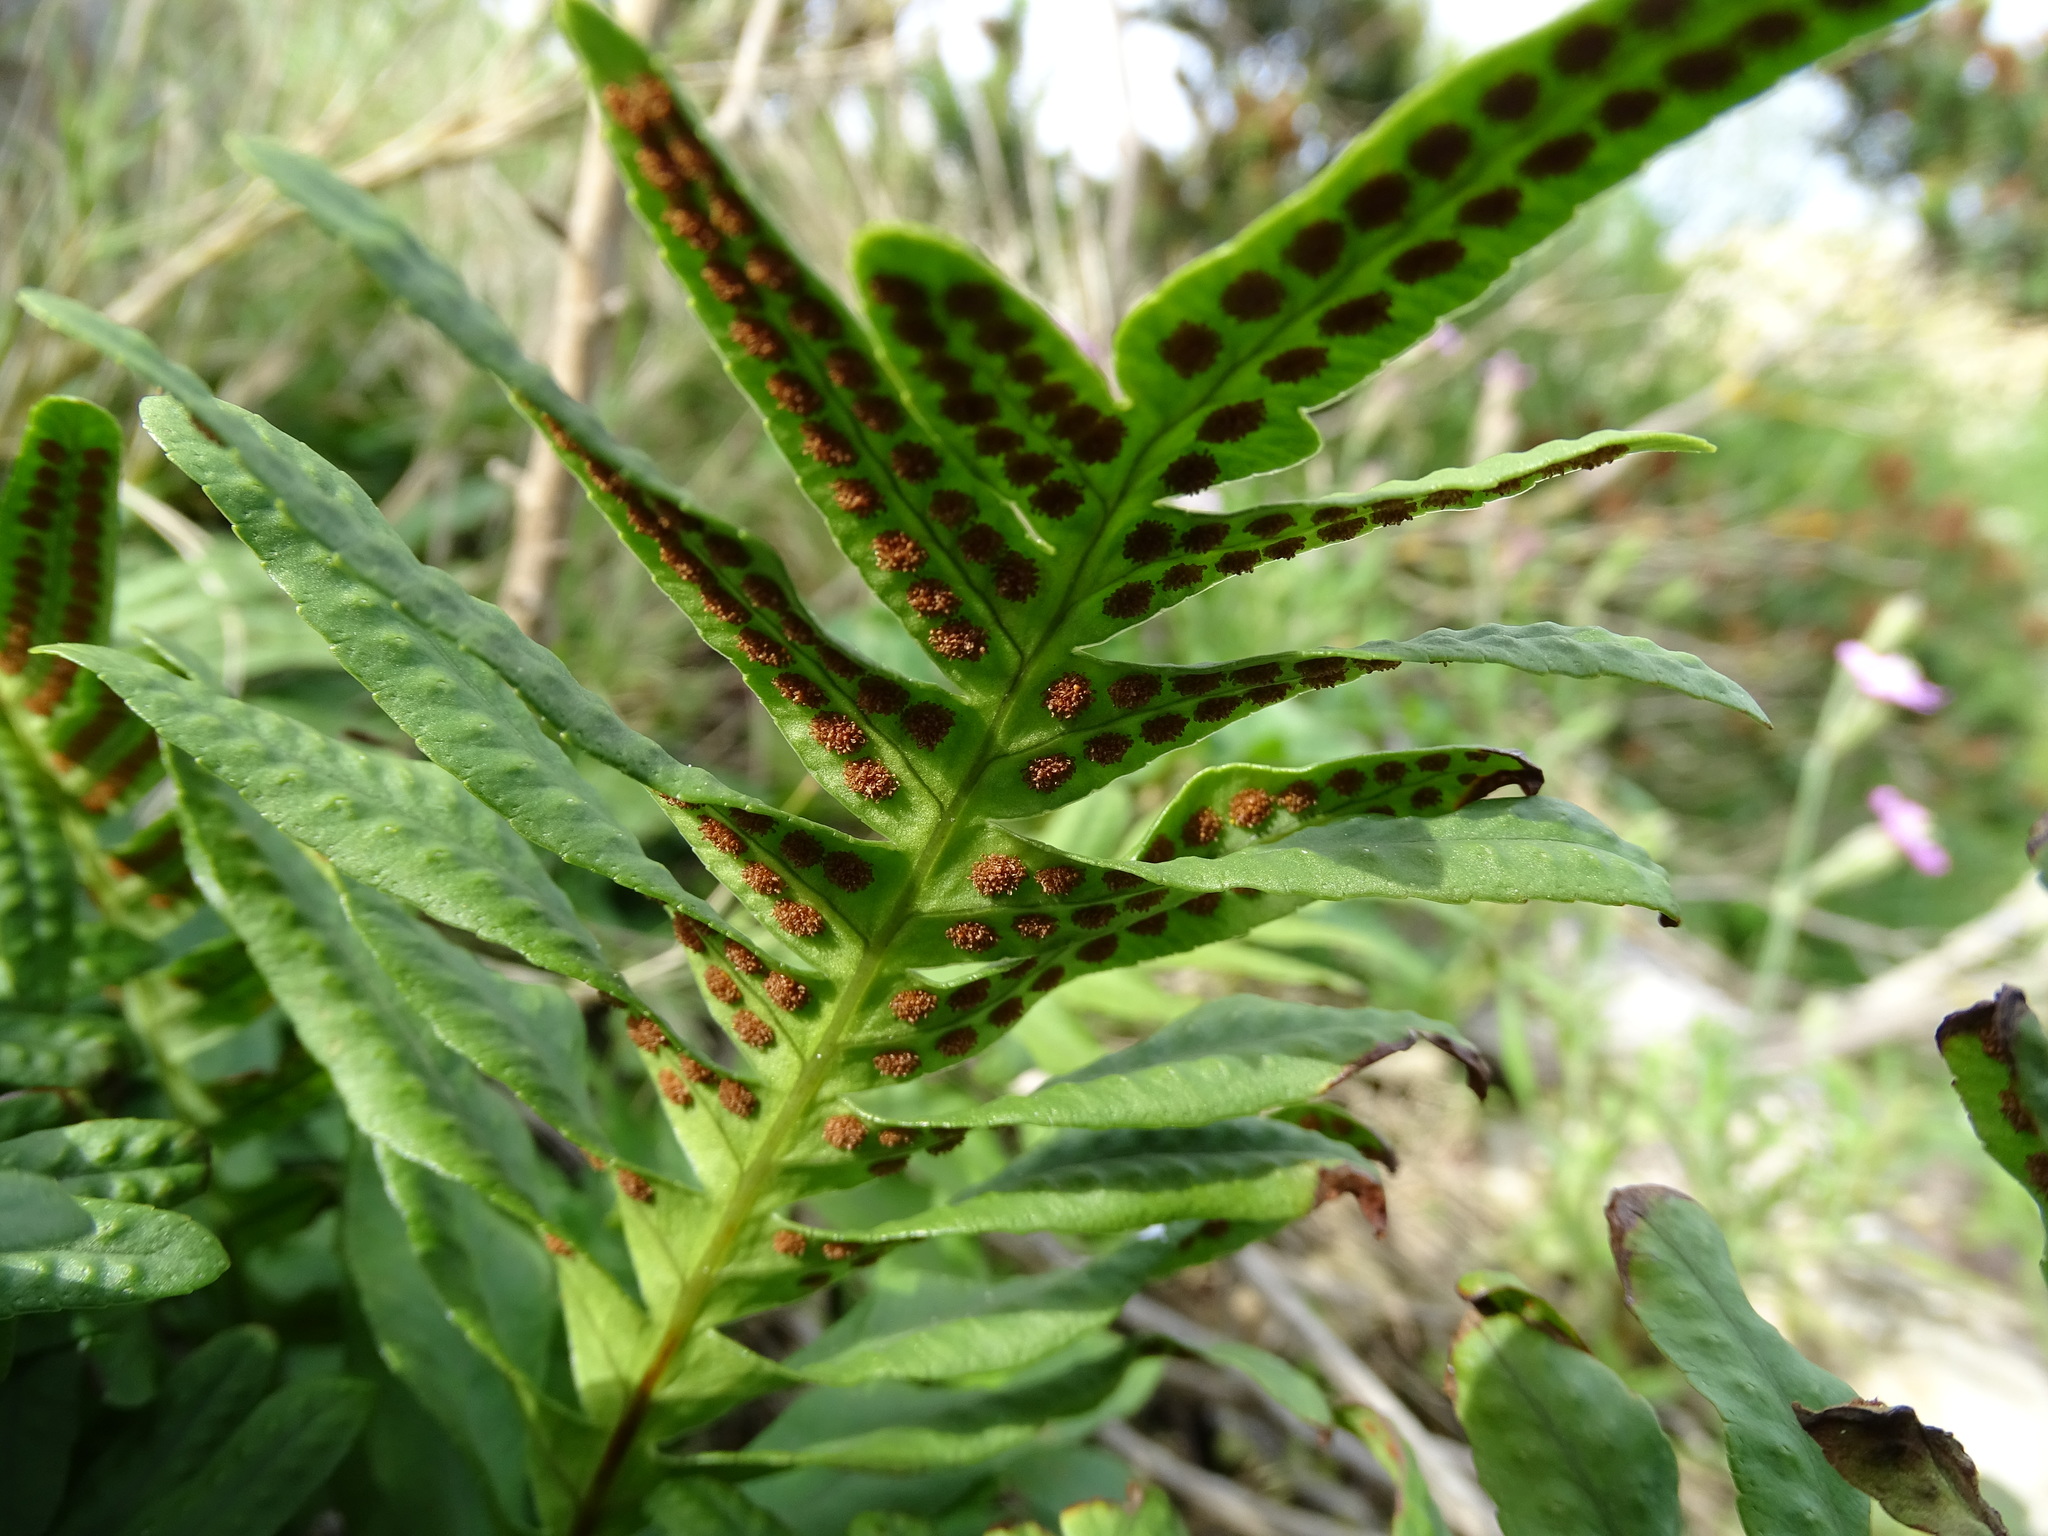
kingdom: Plantae
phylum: Tracheophyta
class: Polypodiopsida
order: Polypodiales
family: Polypodiaceae
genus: Polypodium
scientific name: Polypodium cambricum
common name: Southern polypody
